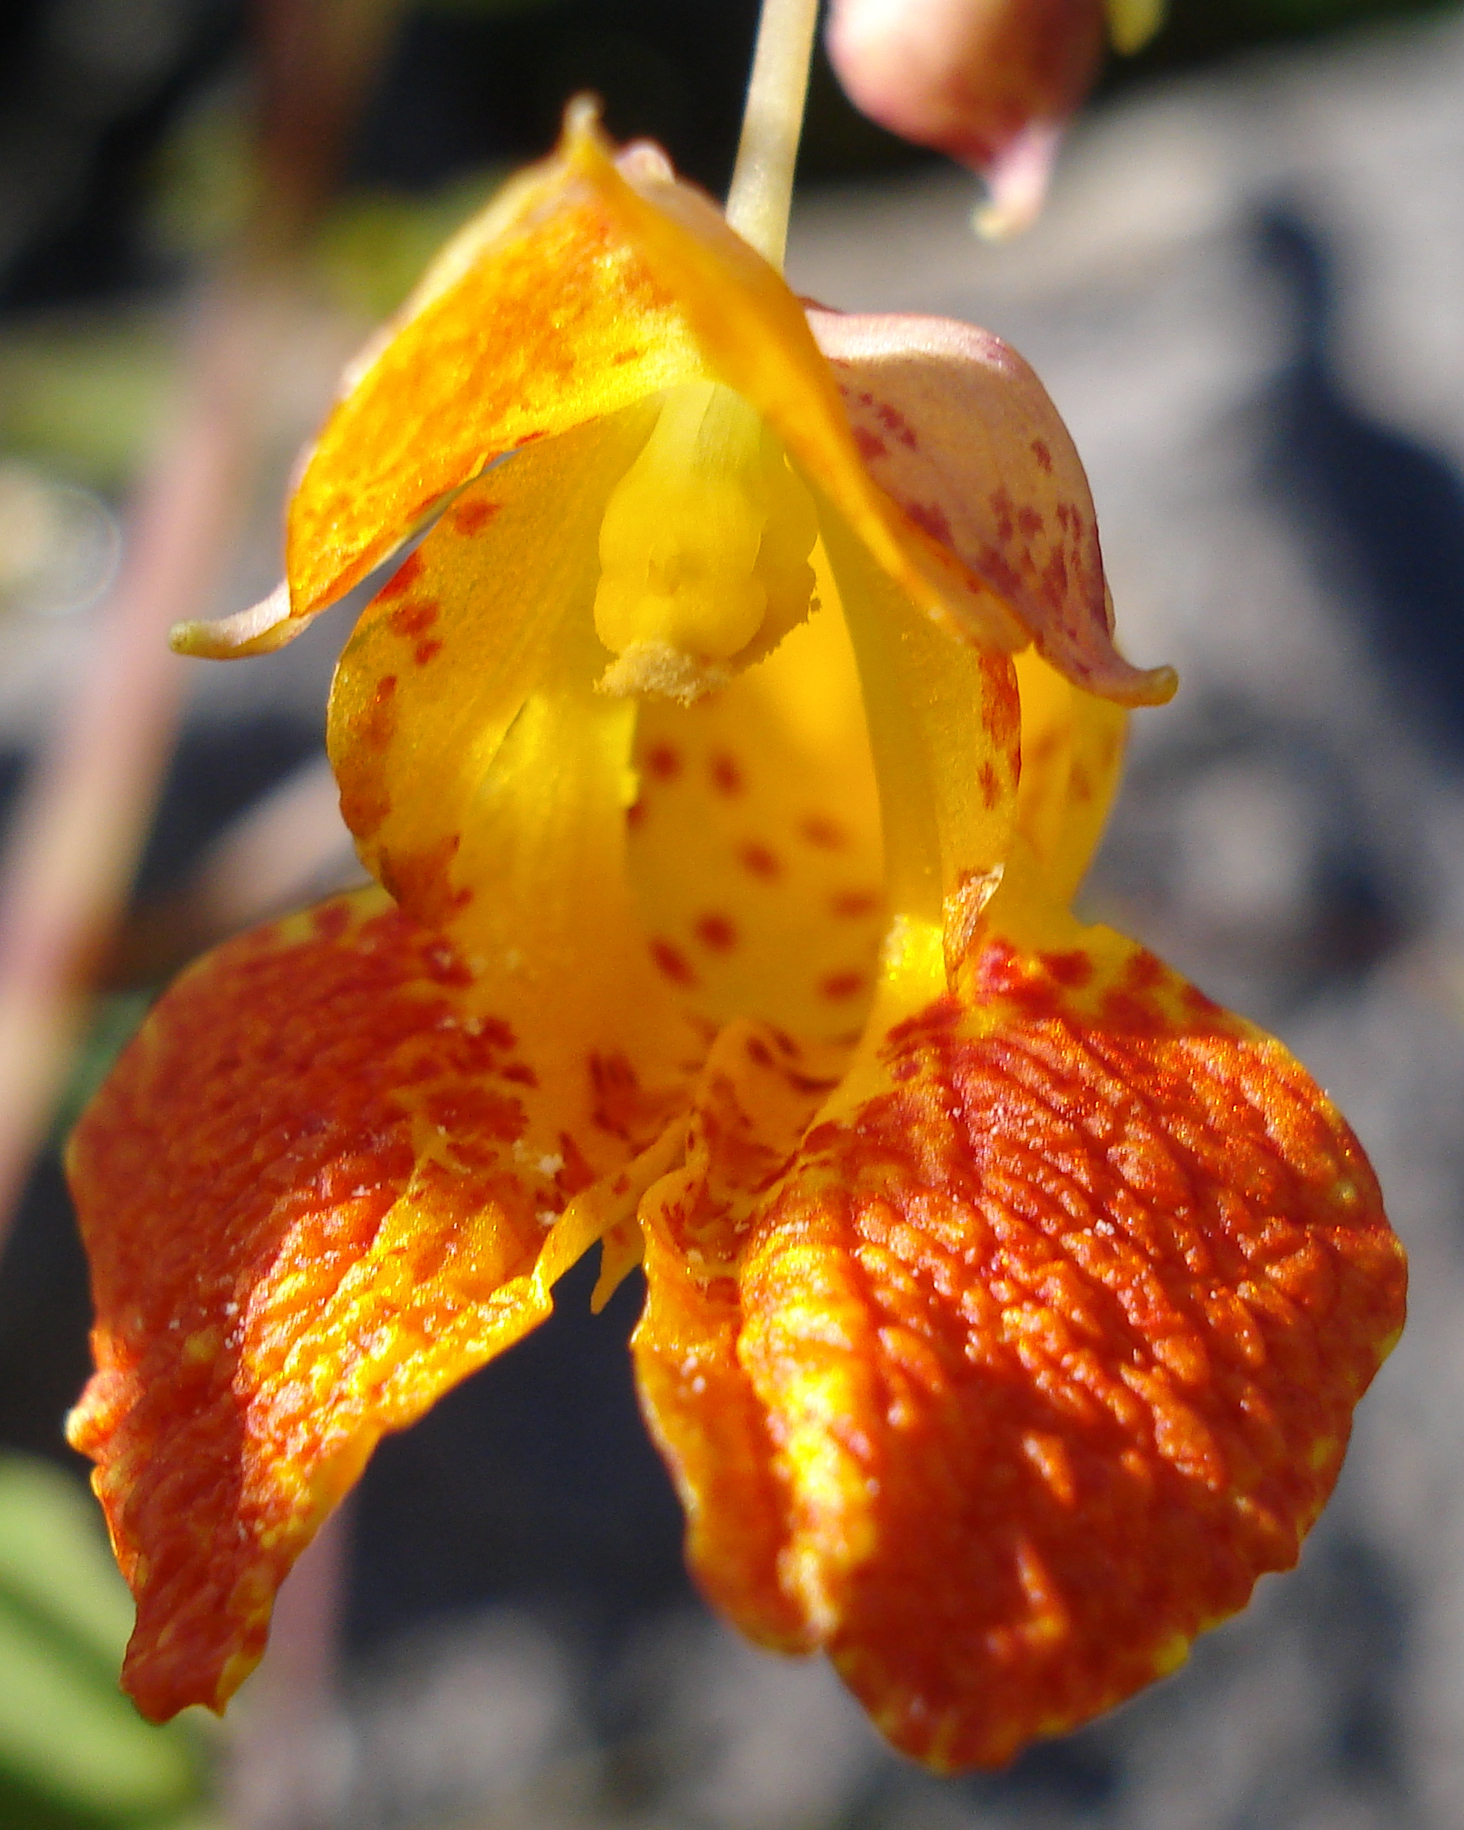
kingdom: Plantae
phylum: Tracheophyta
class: Magnoliopsida
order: Ericales
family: Balsaminaceae
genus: Impatiens
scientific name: Impatiens capensis
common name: Orange balsam
